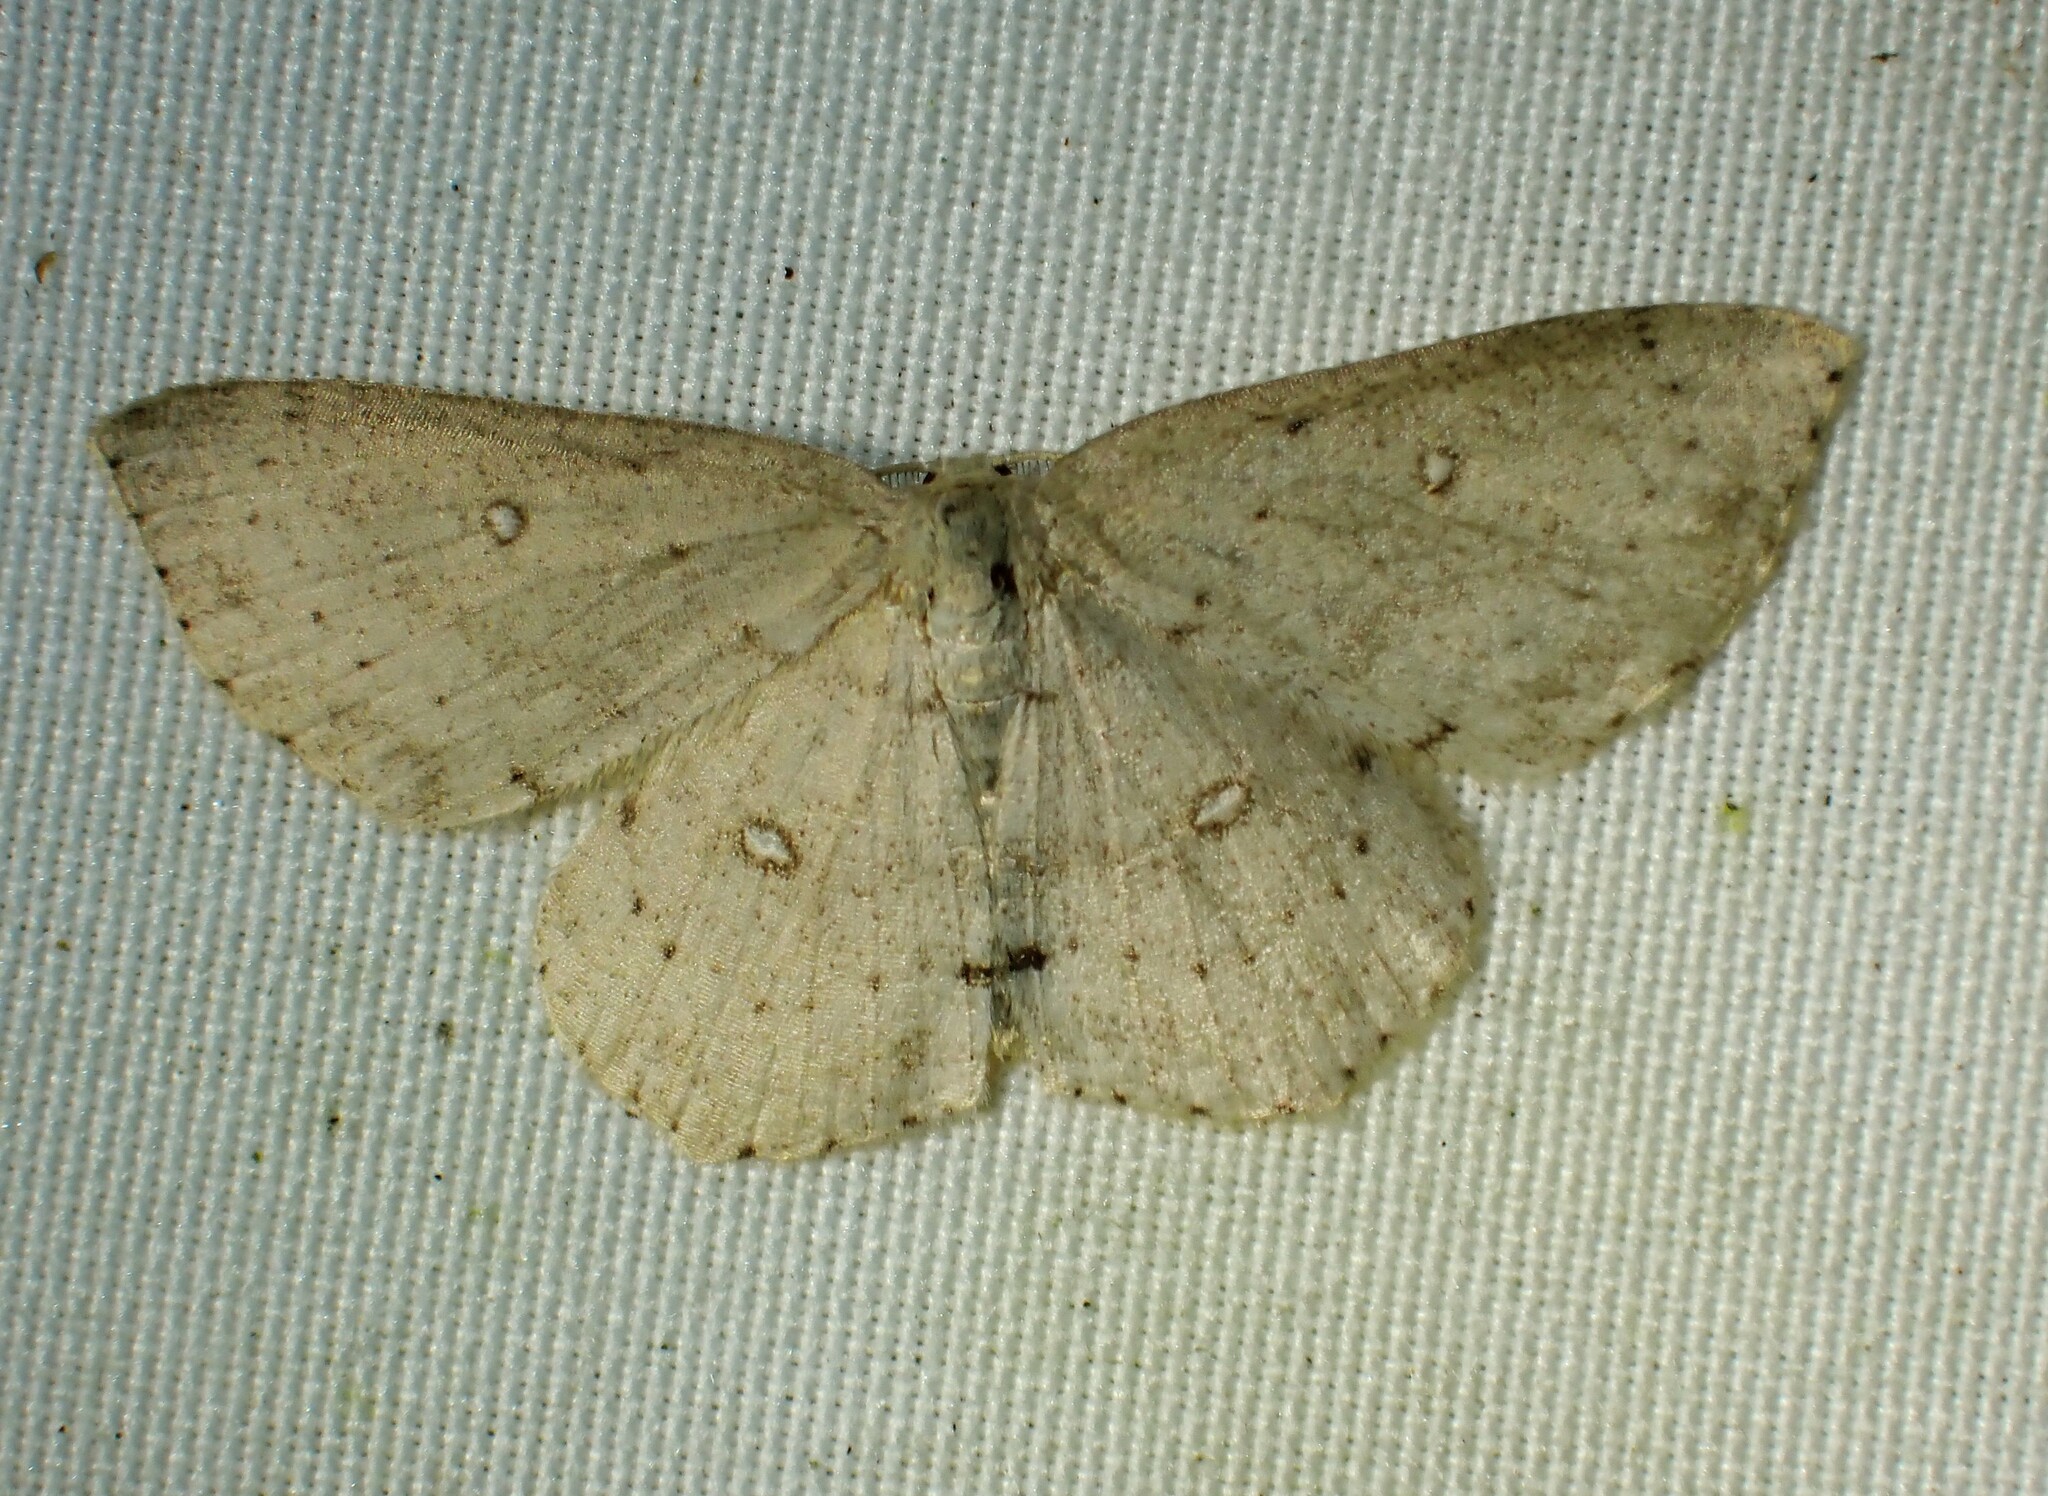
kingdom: Animalia
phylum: Arthropoda
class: Insecta
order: Lepidoptera
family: Geometridae
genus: Cyclophora
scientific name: Cyclophora pendulinaria
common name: Sweet fern geometer
